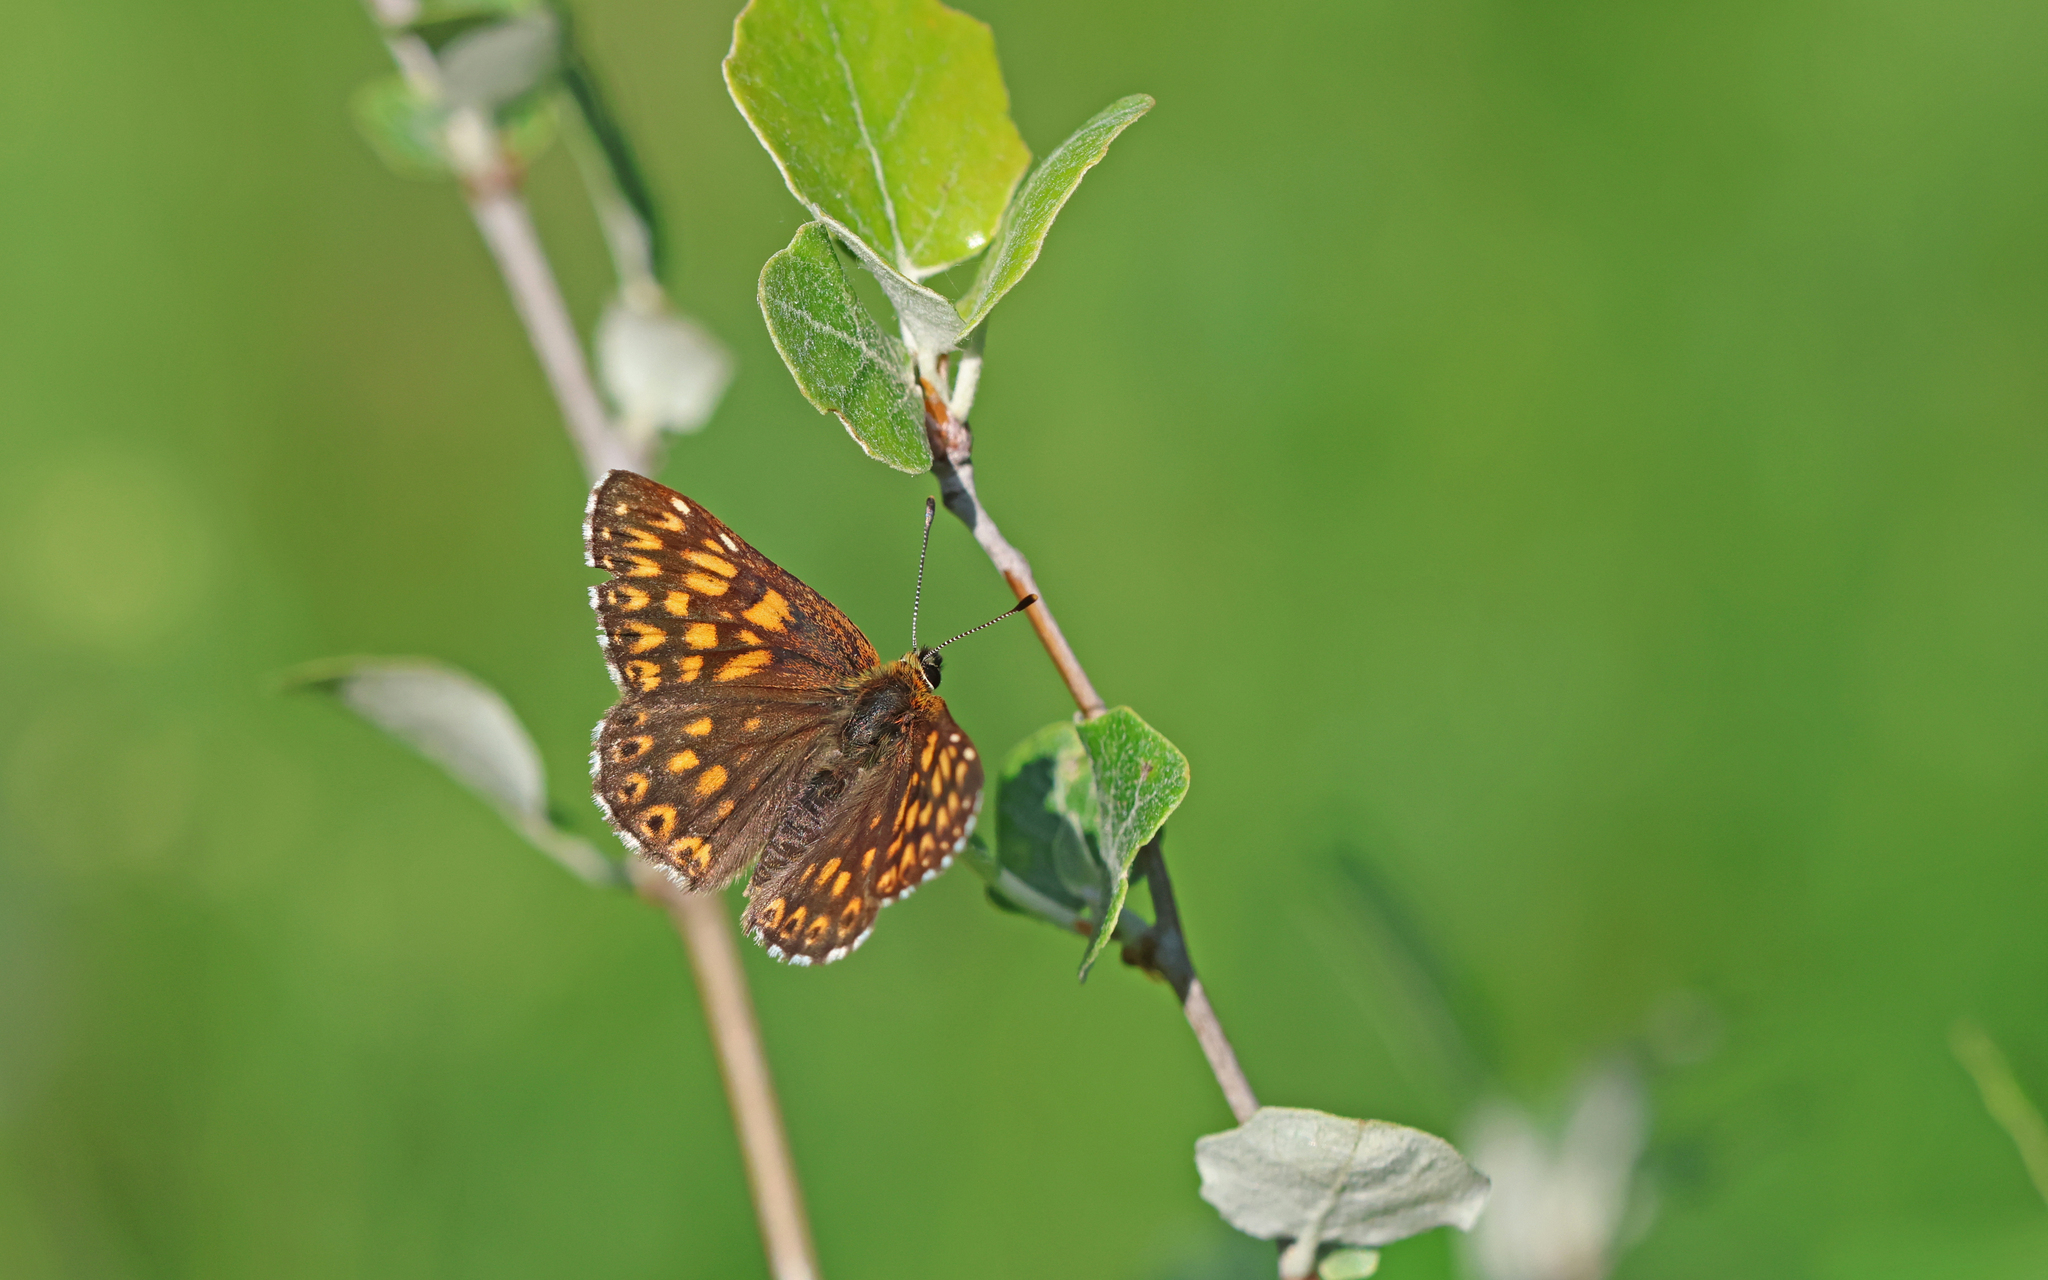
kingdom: Animalia
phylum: Arthropoda
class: Insecta
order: Lepidoptera
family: Riodinidae
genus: Hamearis
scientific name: Hamearis lucina
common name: Duke of burgundy fritillary
